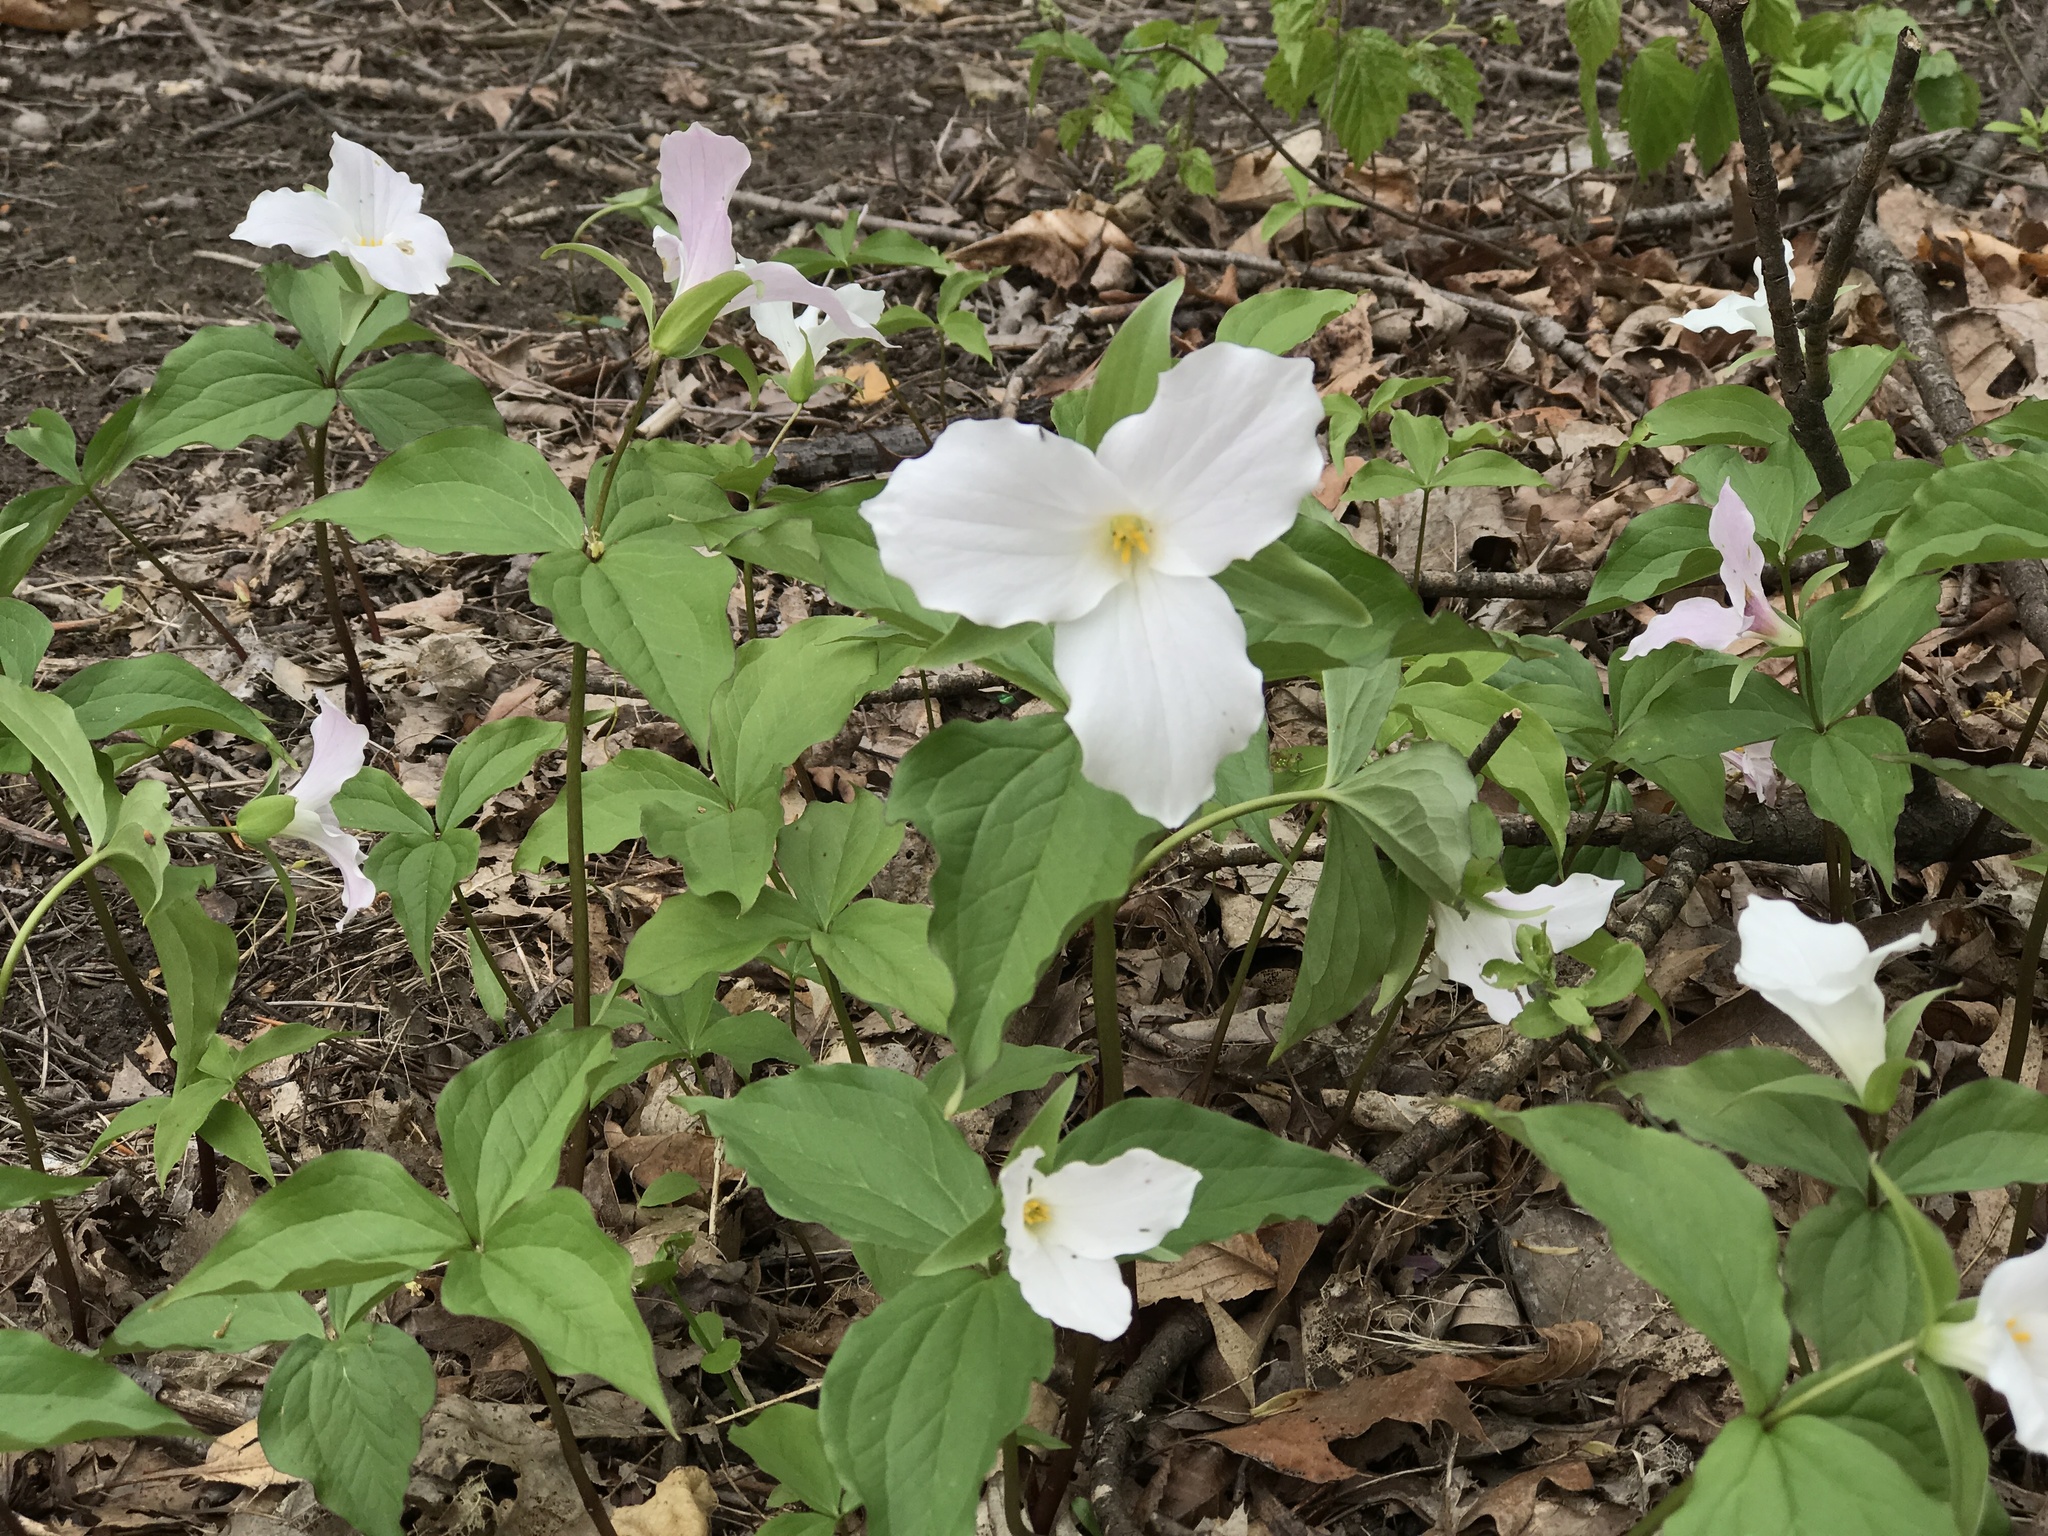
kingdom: Plantae
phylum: Tracheophyta
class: Liliopsida
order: Liliales
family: Melanthiaceae
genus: Trillium
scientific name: Trillium grandiflorum
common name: Great white trillium
